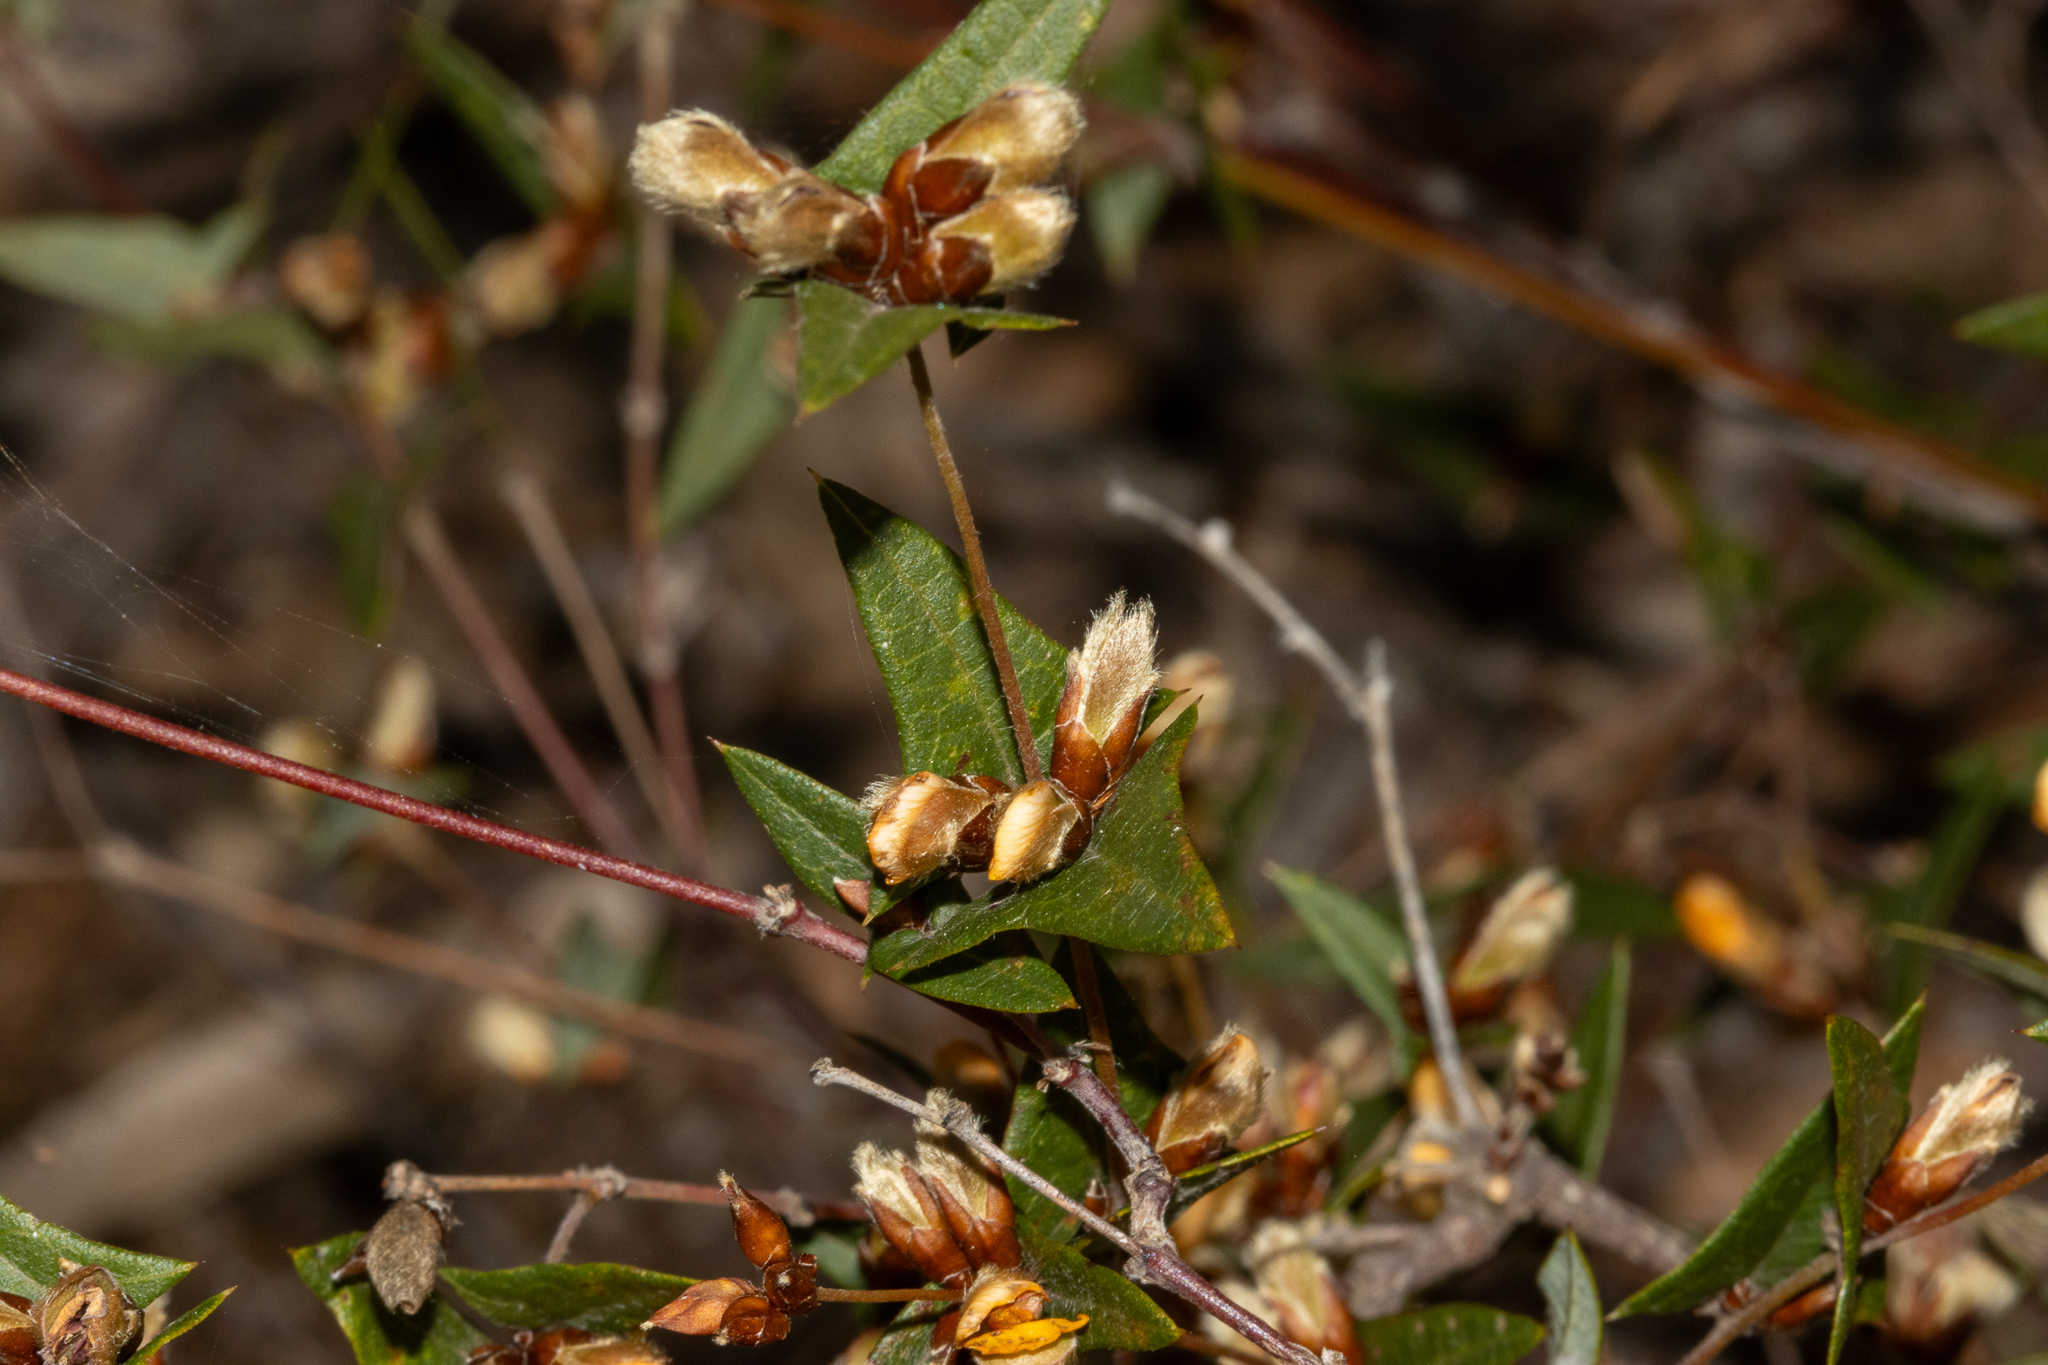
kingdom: Plantae
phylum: Tracheophyta
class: Magnoliopsida
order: Fabales
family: Fabaceae
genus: Platylobium
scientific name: Platylobium obtusangulum
